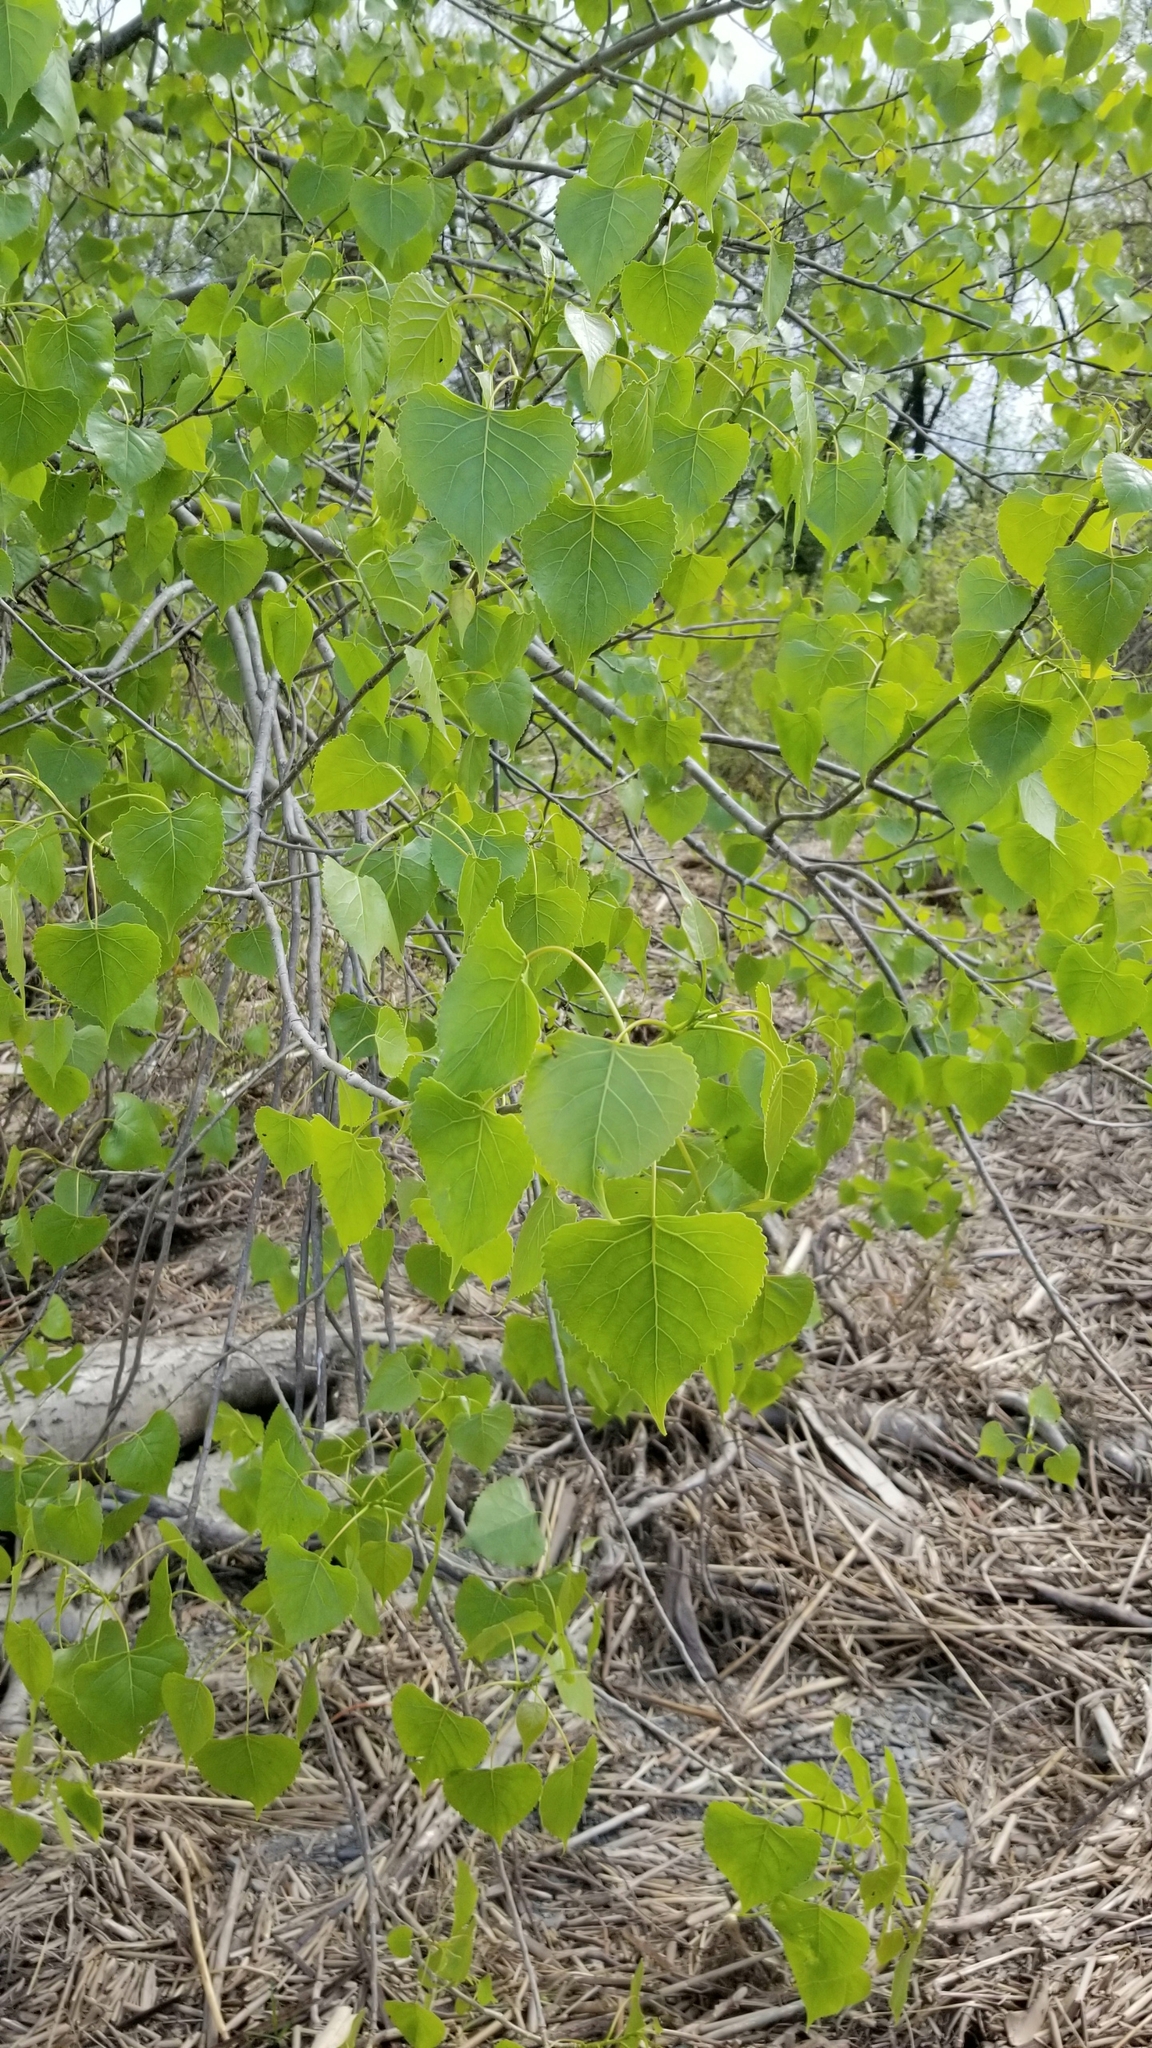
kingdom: Plantae
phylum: Tracheophyta
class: Magnoliopsida
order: Malpighiales
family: Salicaceae
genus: Populus
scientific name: Populus deltoides
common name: Eastern cottonwood
